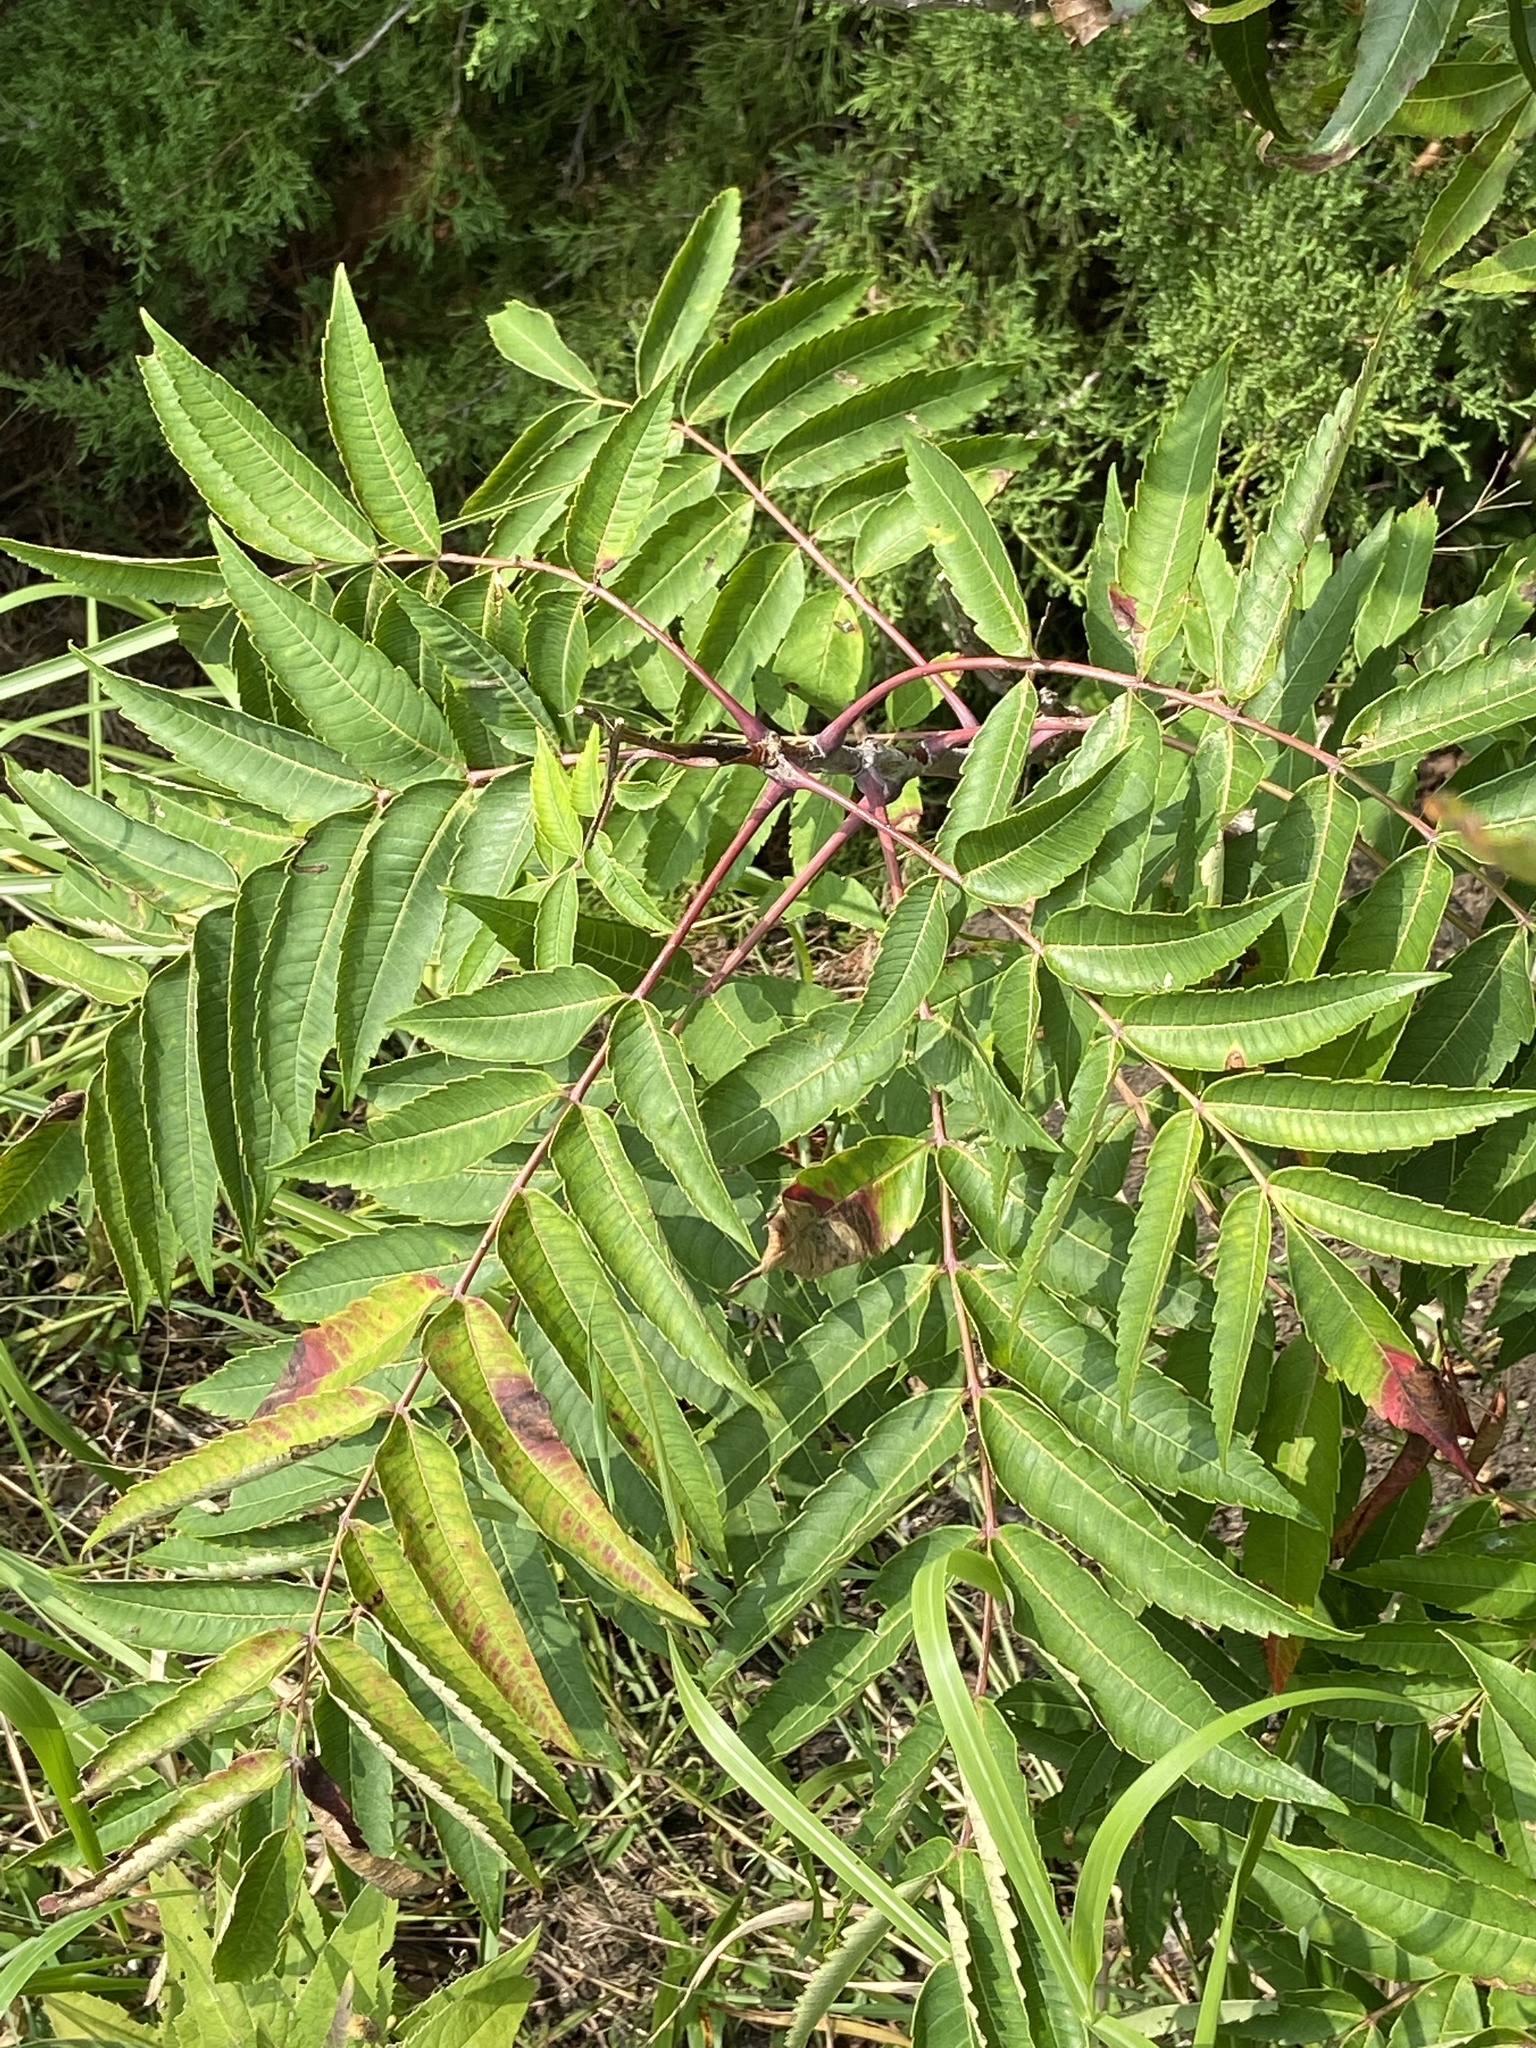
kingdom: Plantae
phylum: Tracheophyta
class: Magnoliopsida
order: Sapindales
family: Anacardiaceae
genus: Rhus
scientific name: Rhus glabra
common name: Scarlet sumac
